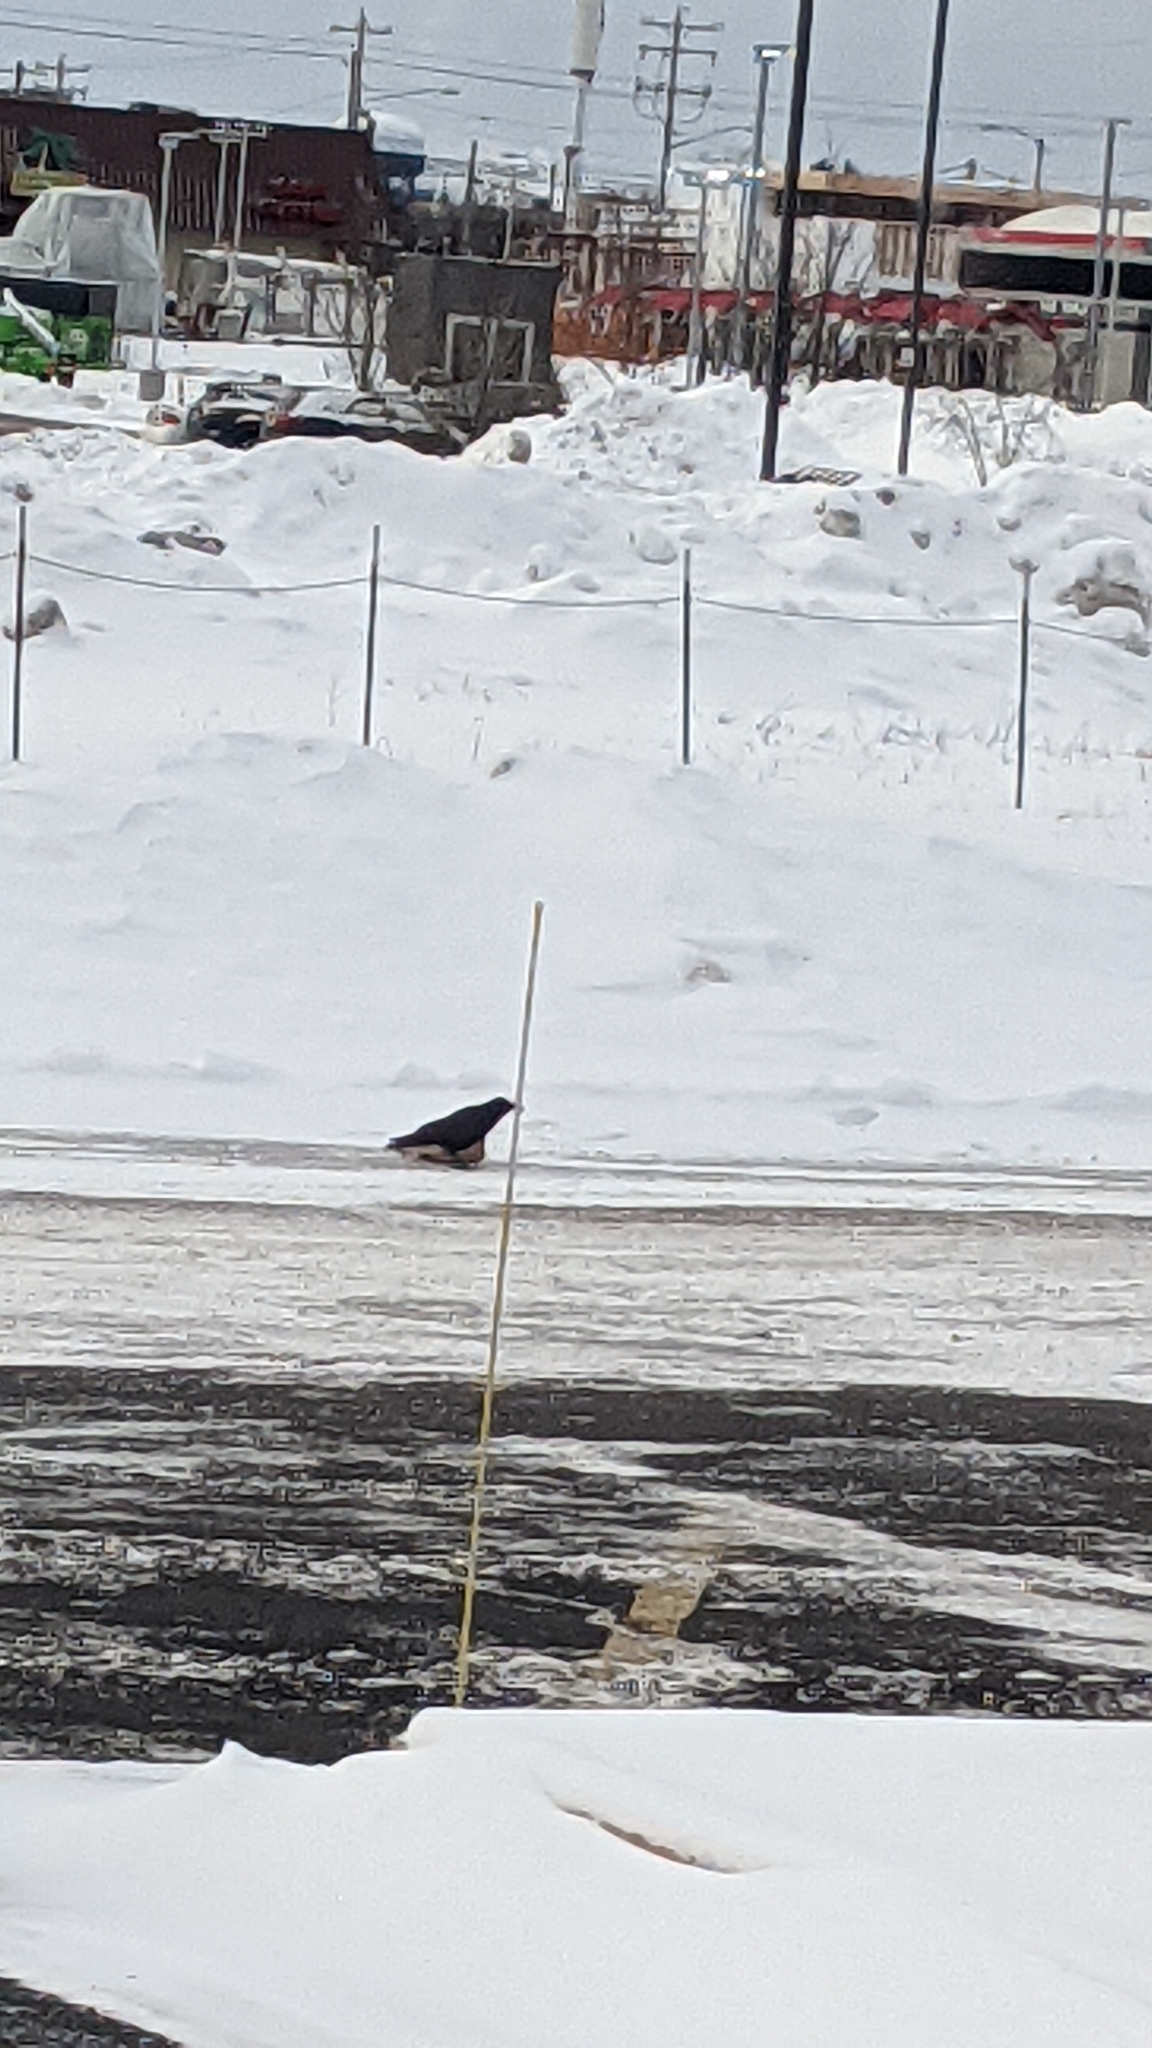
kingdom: Animalia
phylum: Chordata
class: Aves
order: Passeriformes
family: Corvidae
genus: Corvus
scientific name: Corvus brachyrhynchos
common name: American crow
